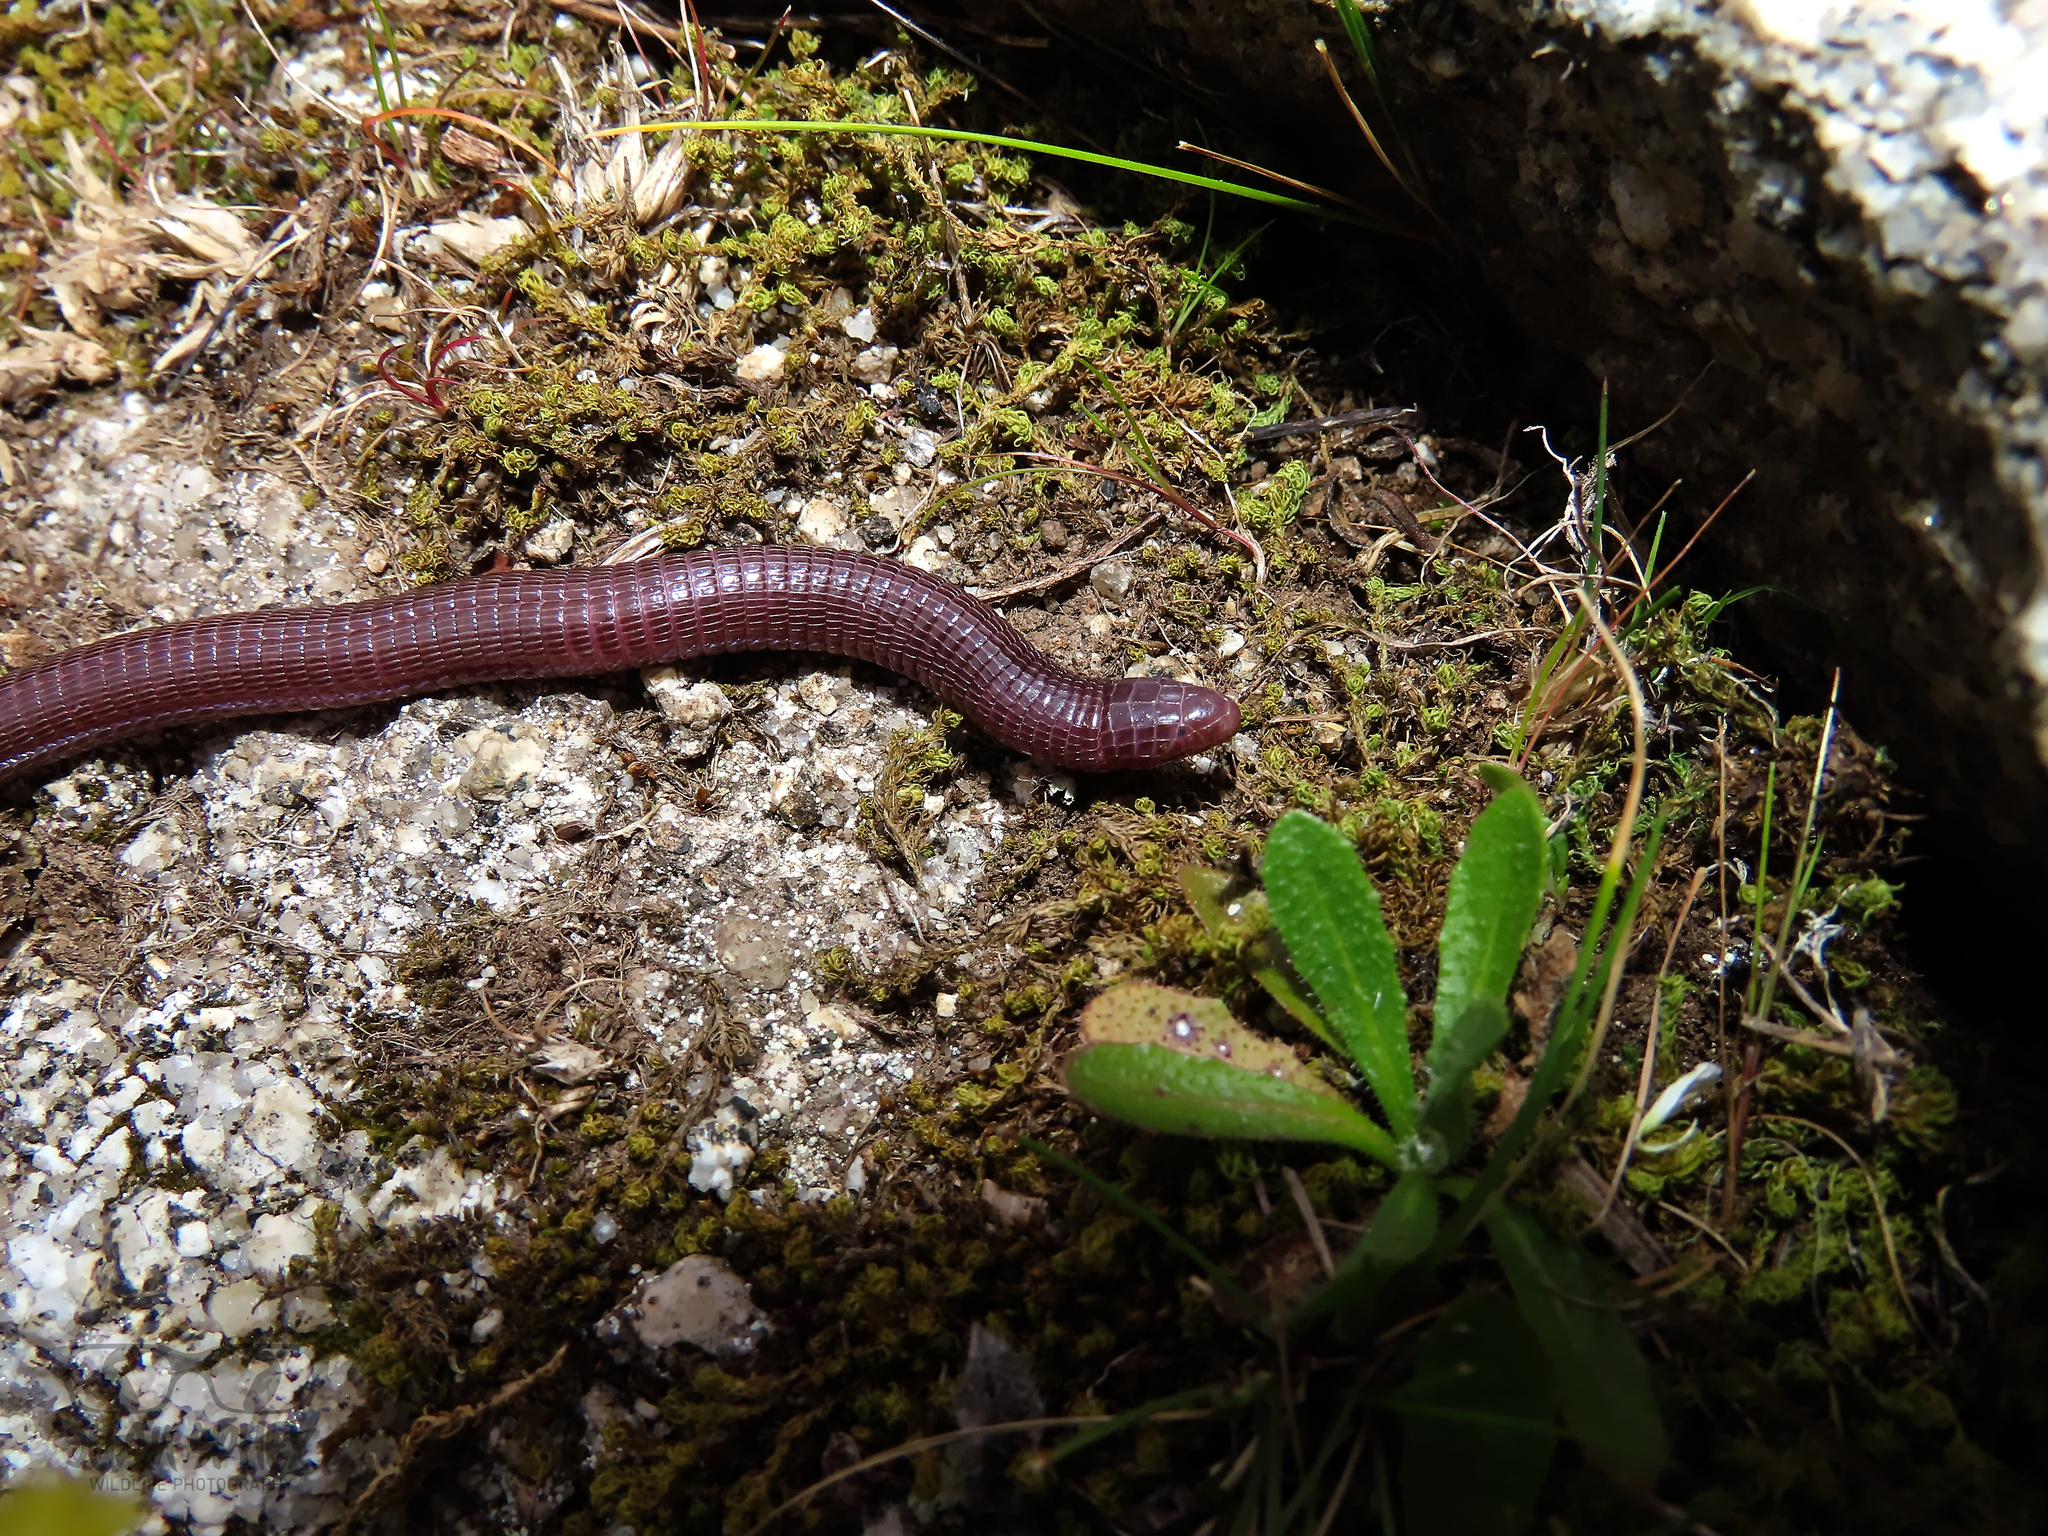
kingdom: Animalia
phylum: Chordata
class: Squamata
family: Blanidae
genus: Blanus
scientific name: Blanus vandellii
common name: Vandelli's worm lizard
